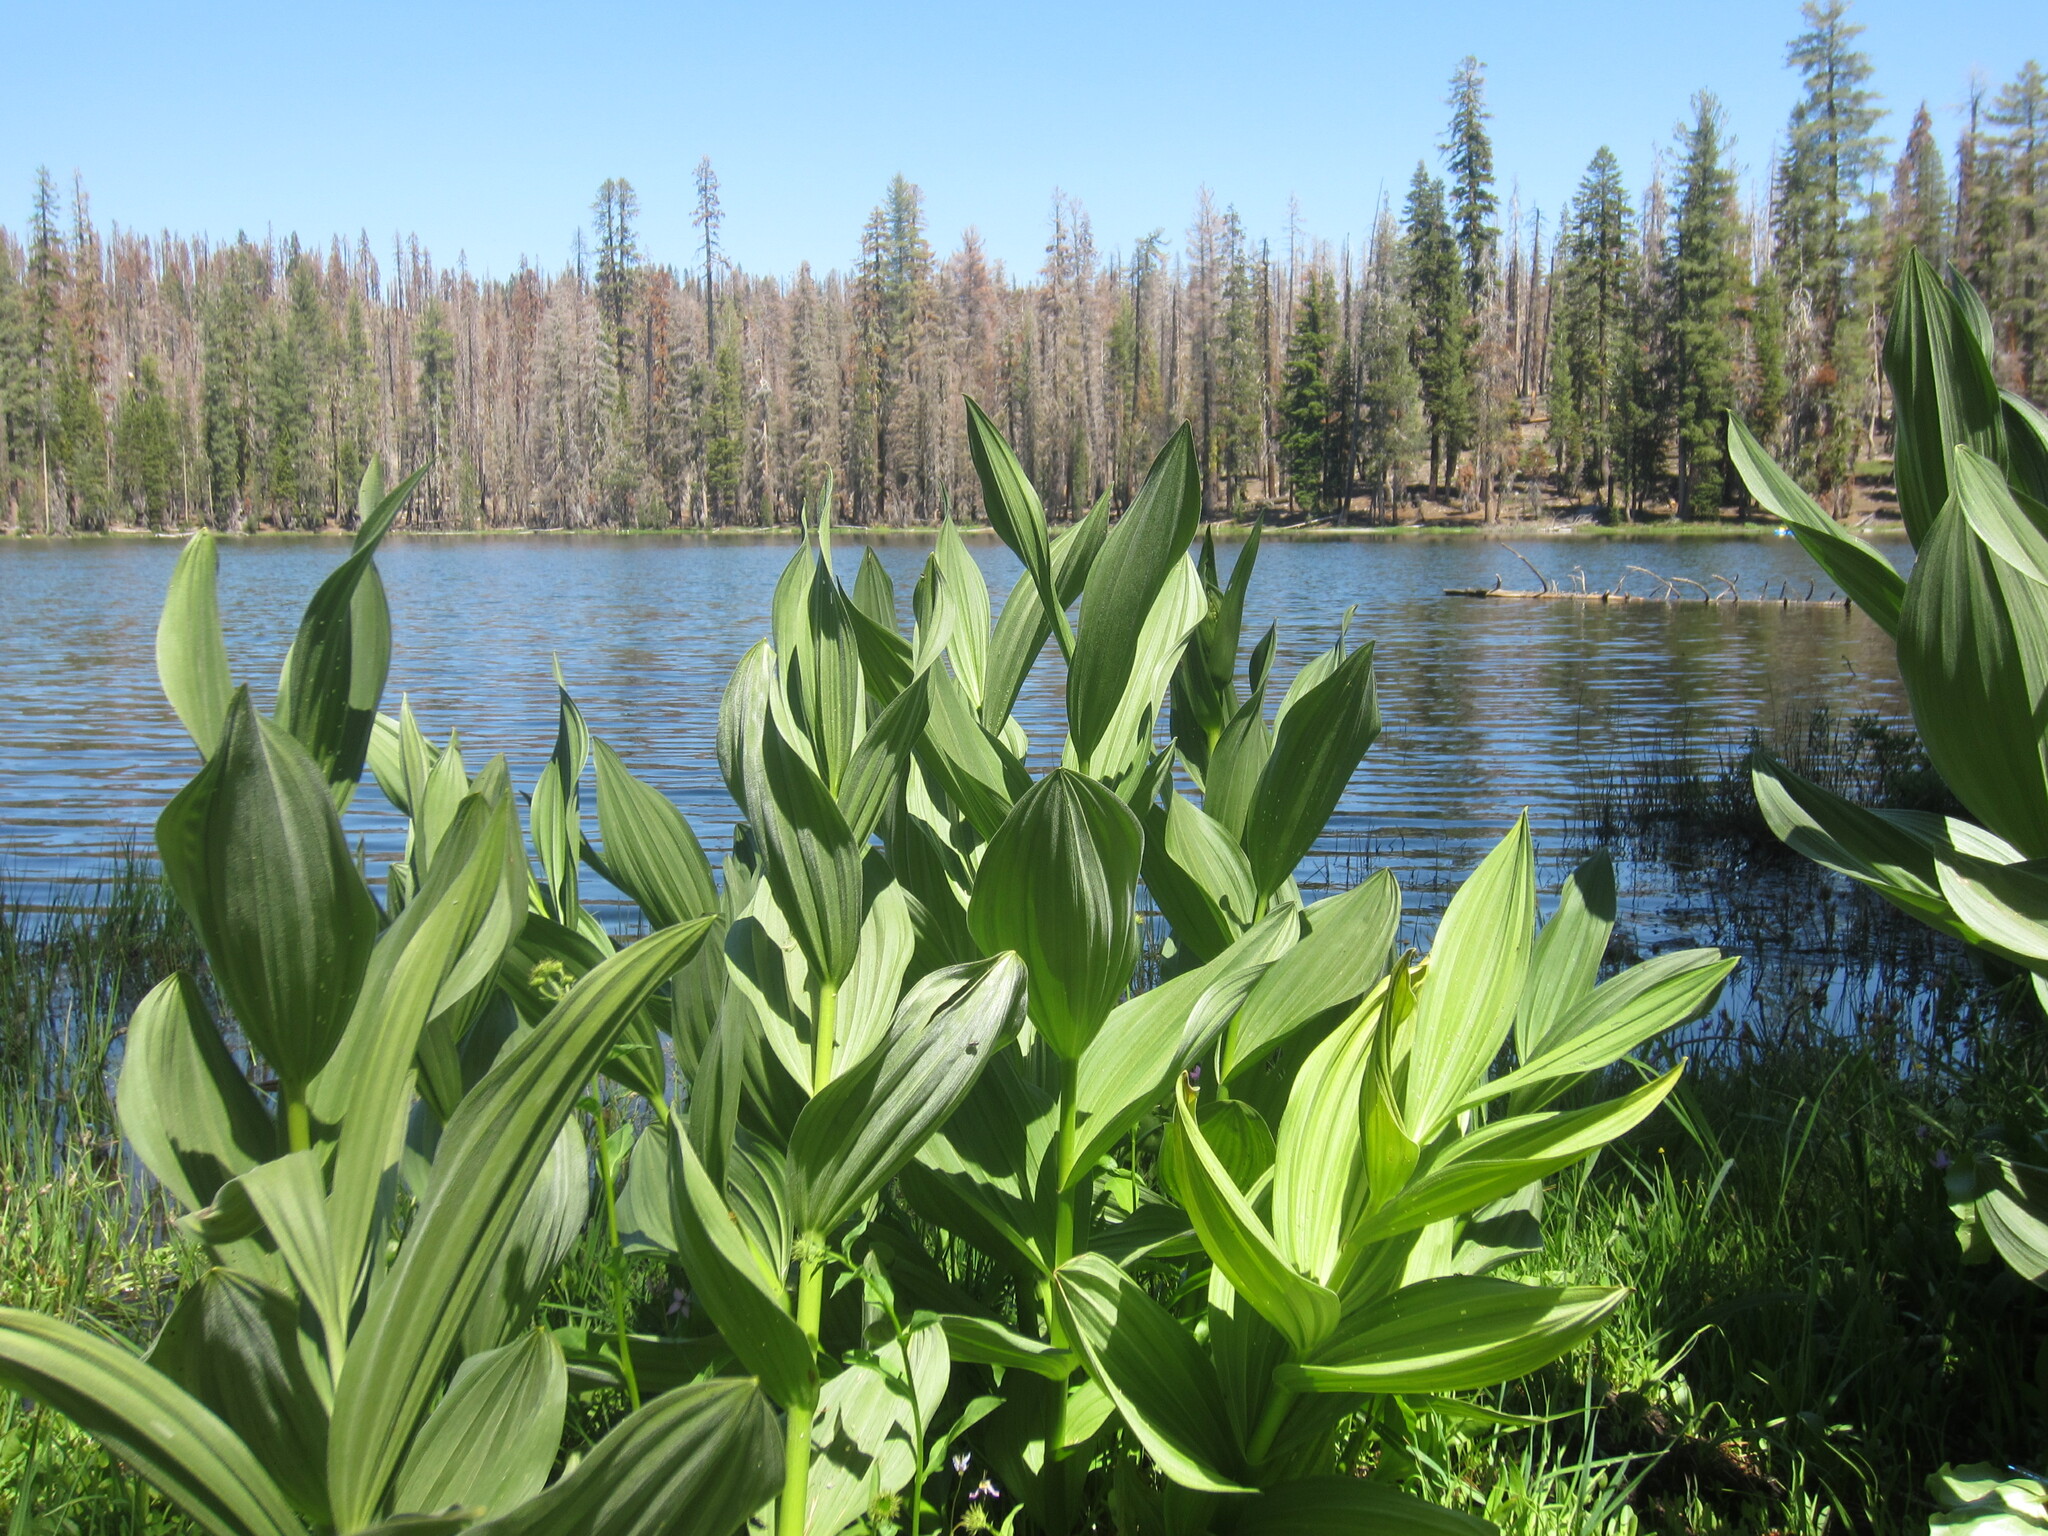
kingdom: Plantae
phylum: Tracheophyta
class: Liliopsida
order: Liliales
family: Melanthiaceae
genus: Veratrum
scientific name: Veratrum californicum
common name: California veratrum
